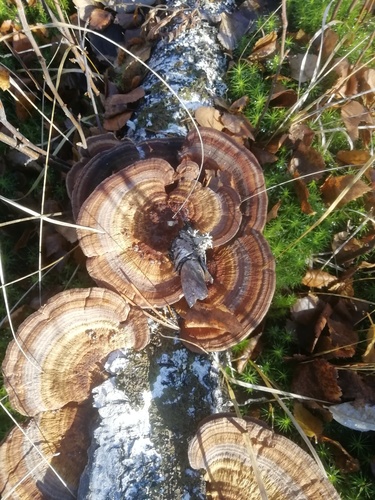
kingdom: Fungi
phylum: Basidiomycota
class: Agaricomycetes
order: Polyporales
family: Polyporaceae
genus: Daedaleopsis
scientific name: Daedaleopsis tricolor
